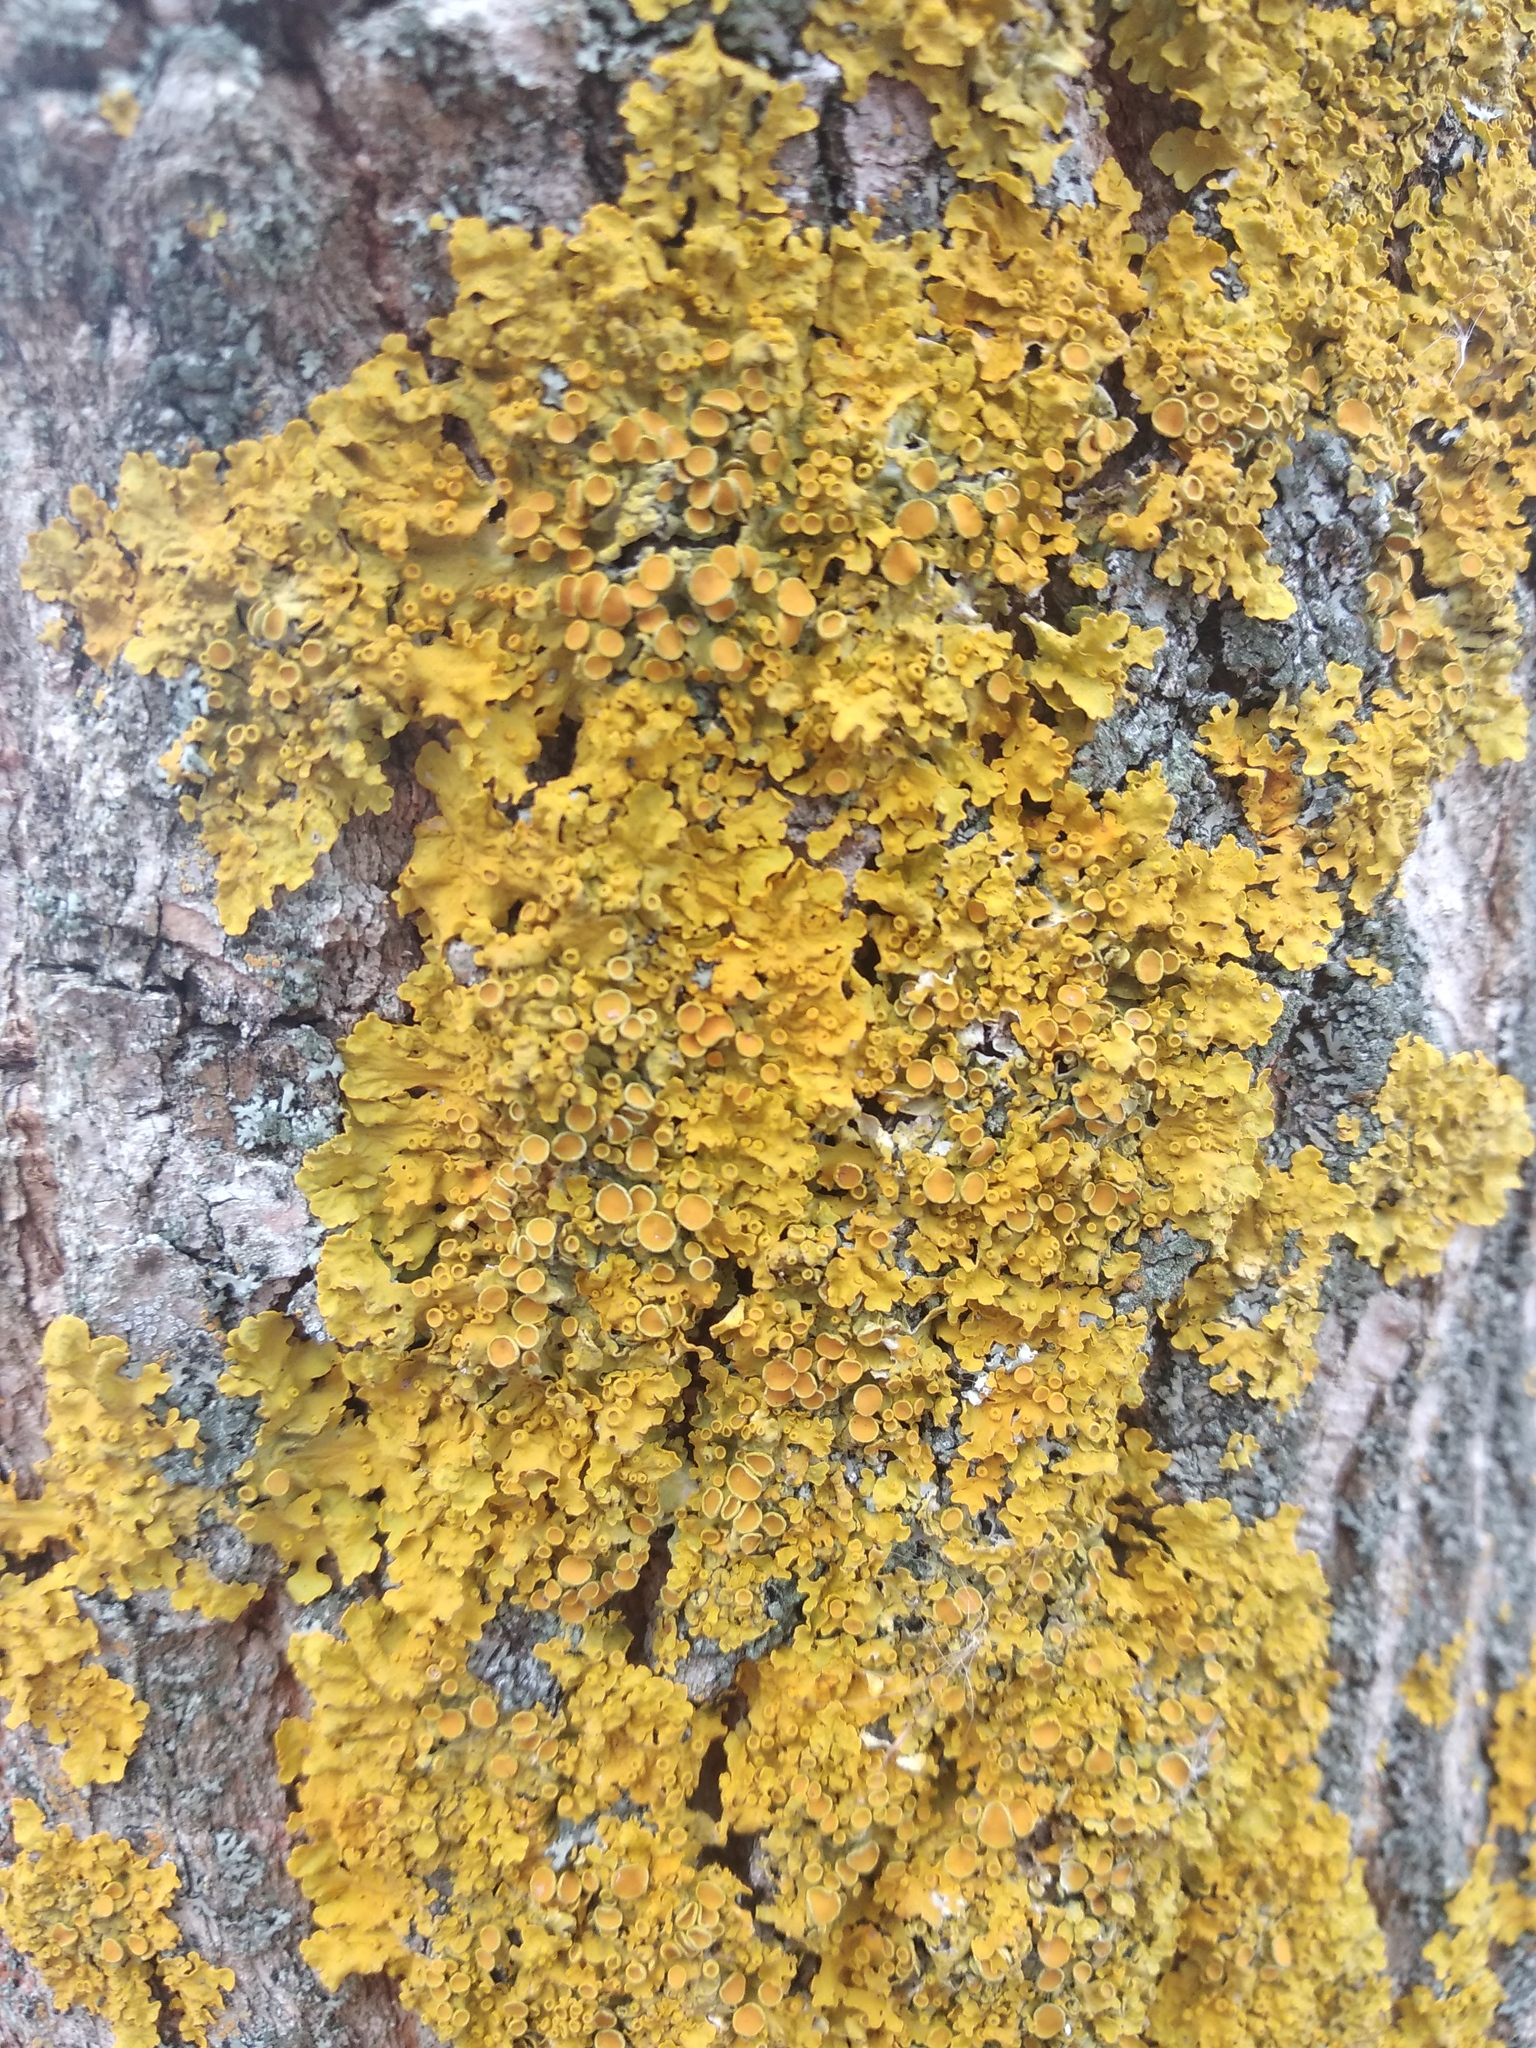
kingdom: Fungi
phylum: Ascomycota
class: Lecanoromycetes
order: Teloschistales
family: Teloschistaceae
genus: Xanthoria
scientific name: Xanthoria parietina
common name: Common orange lichen
